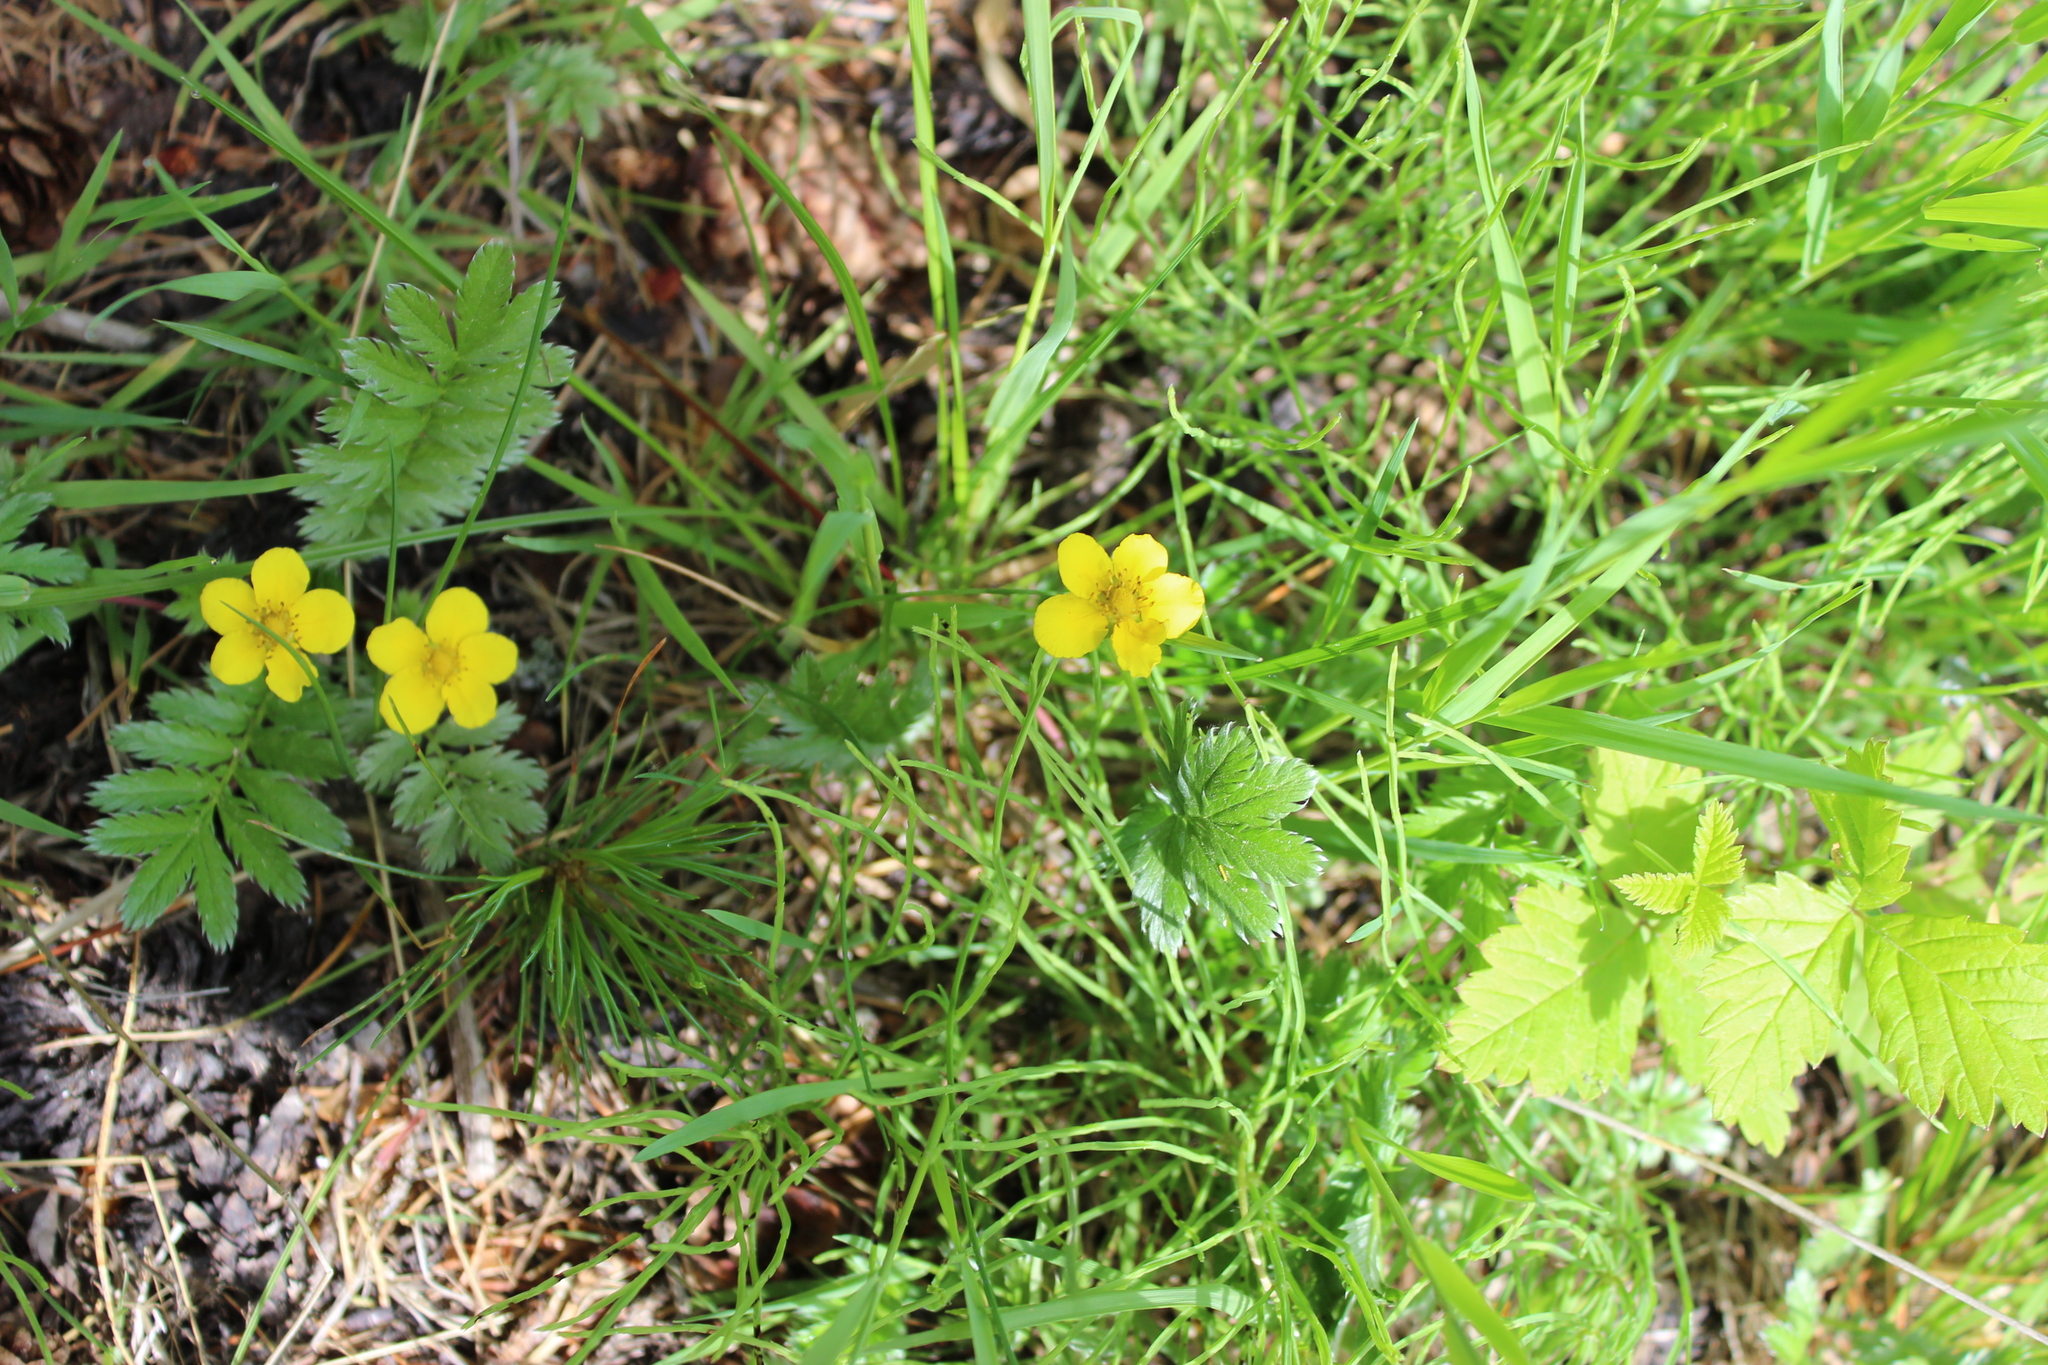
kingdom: Plantae
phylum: Tracheophyta
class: Magnoliopsida
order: Rosales
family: Rosaceae
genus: Argentina
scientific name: Argentina anserina
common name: Common silverweed
